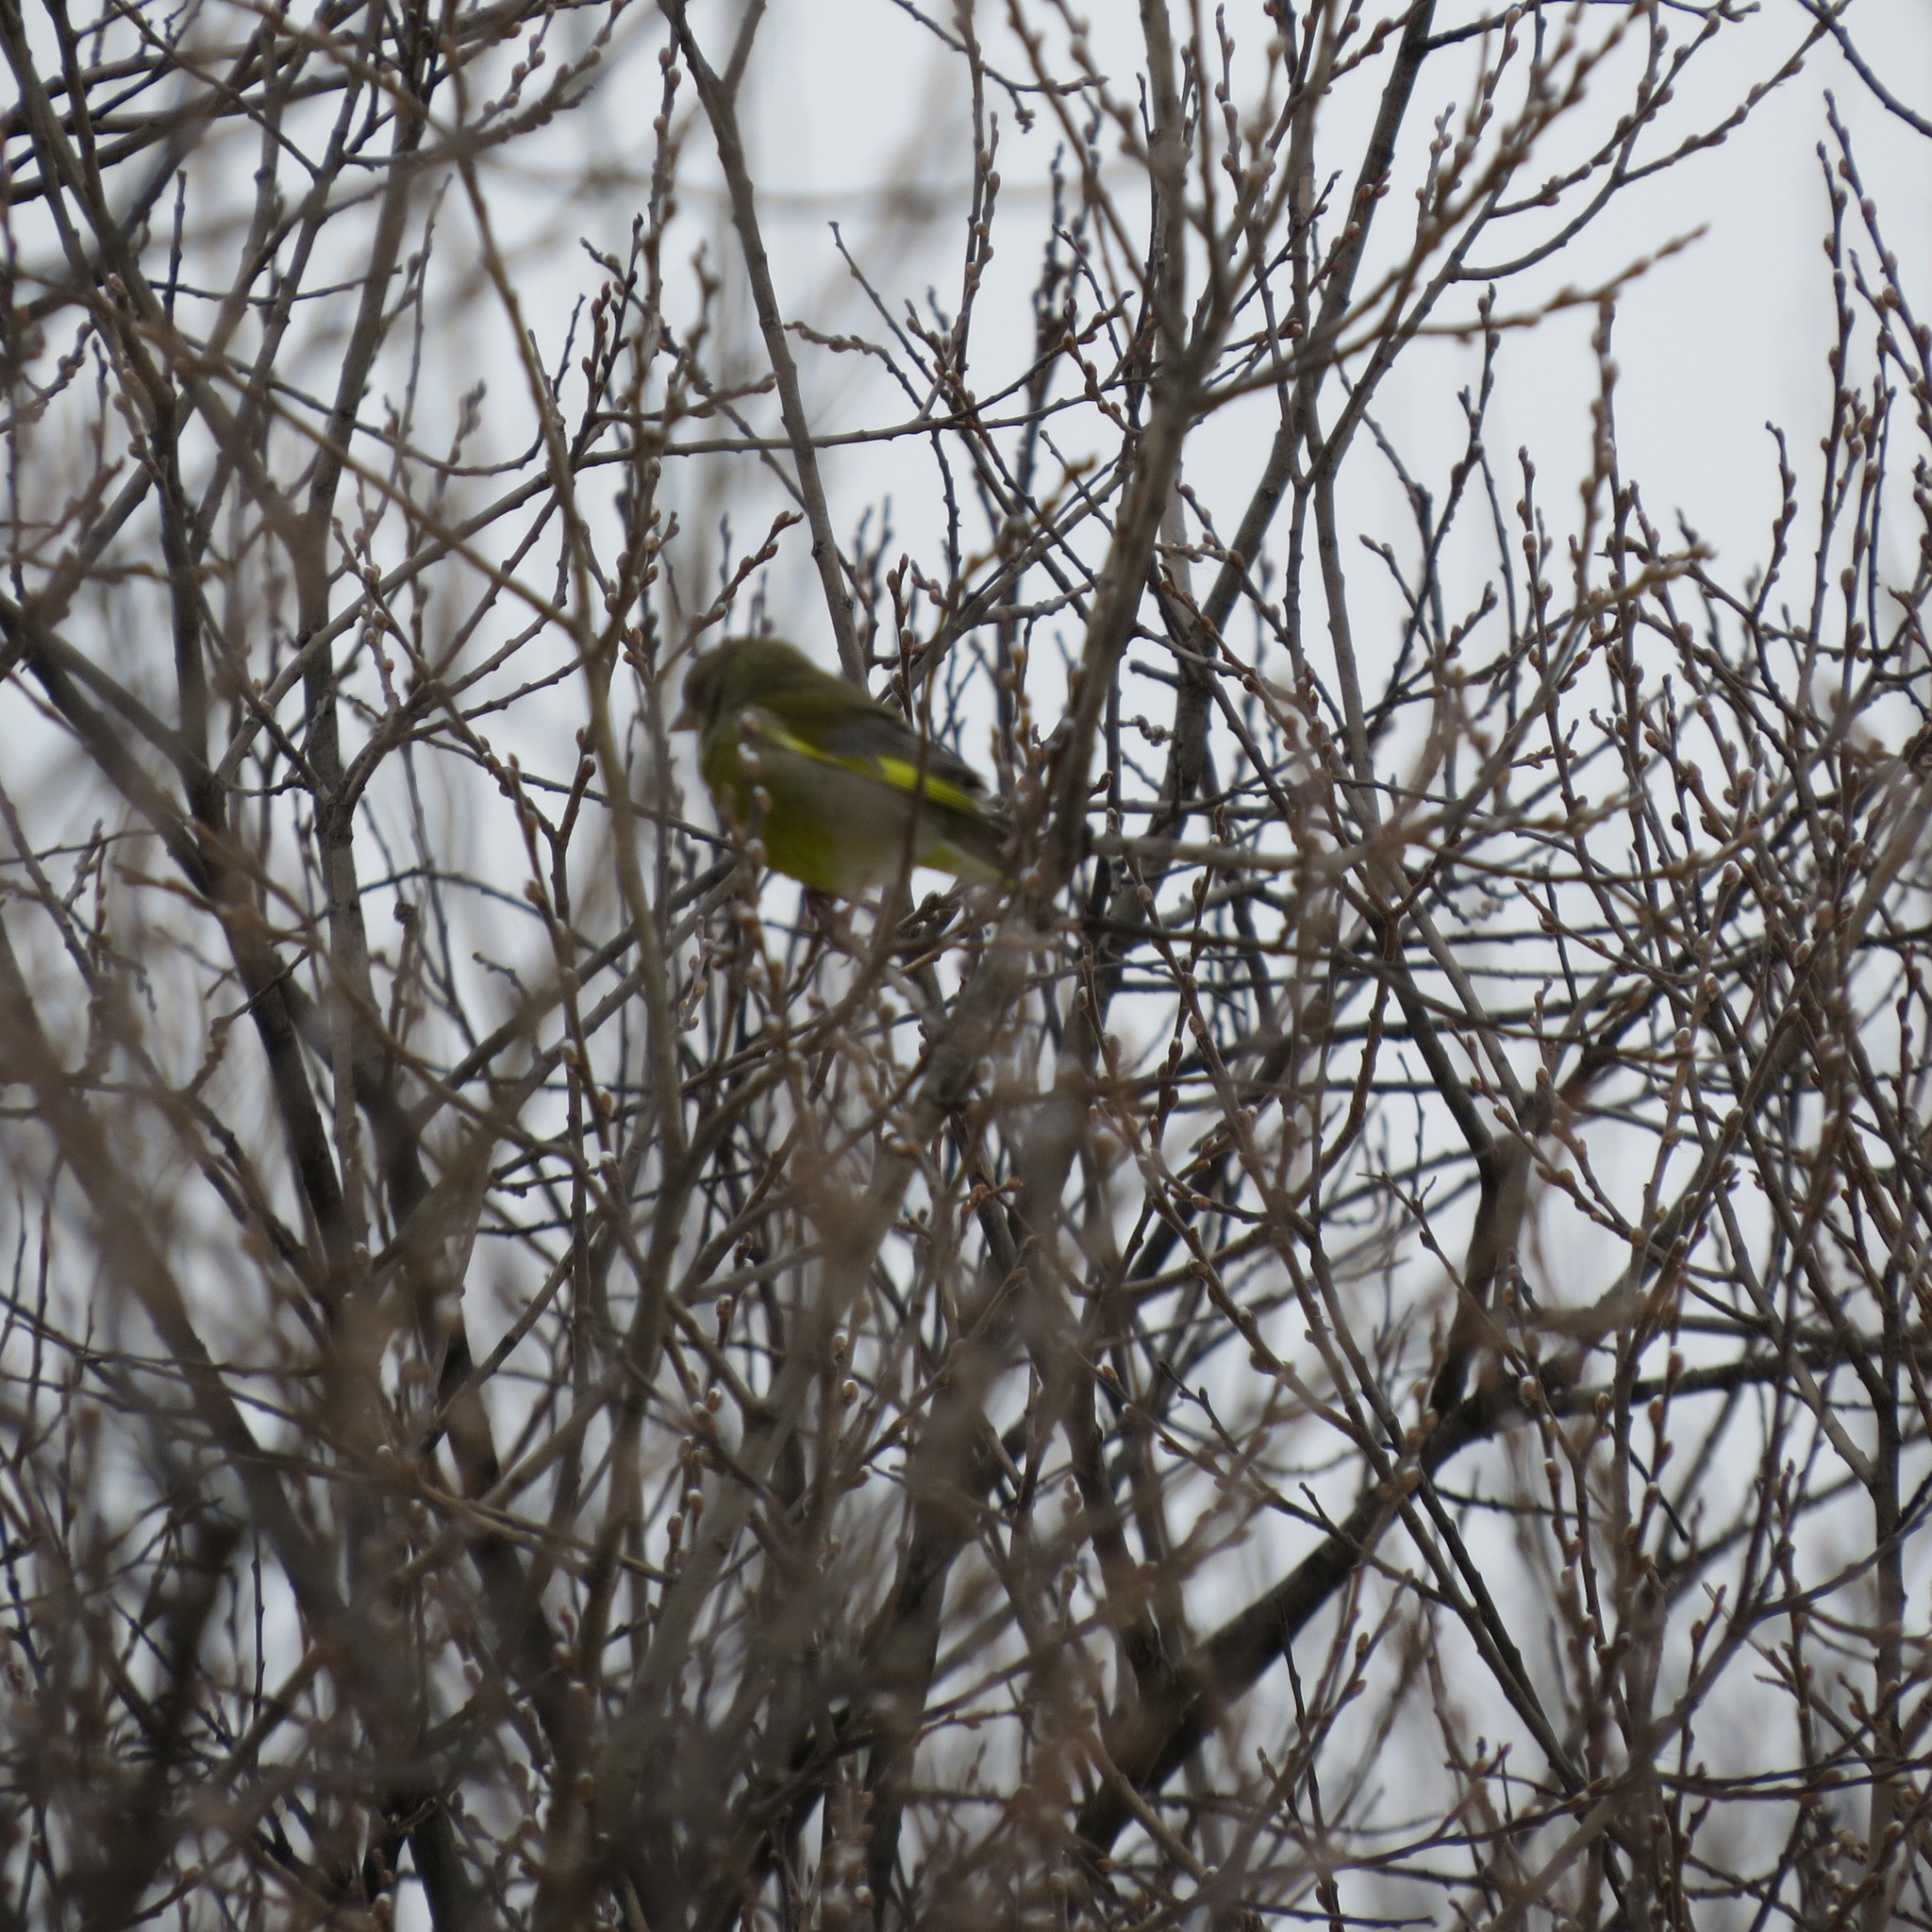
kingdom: Plantae
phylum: Tracheophyta
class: Liliopsida
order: Poales
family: Poaceae
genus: Chloris
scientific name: Chloris chloris
